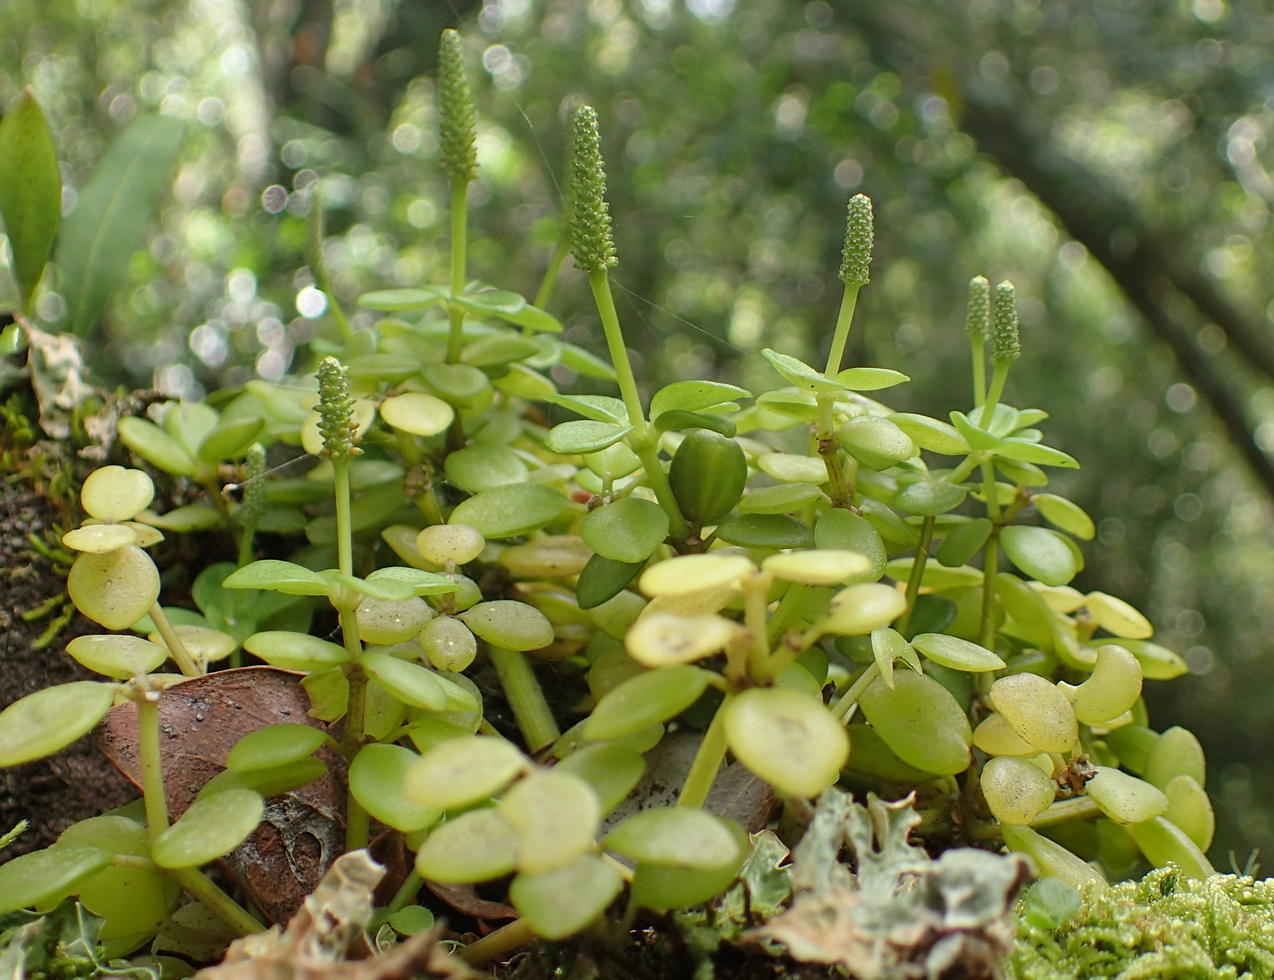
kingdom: Plantae
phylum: Tracheophyta
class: Magnoliopsida
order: Piperales
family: Piperaceae
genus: Peperomia
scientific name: Peperomia tetraphylla
